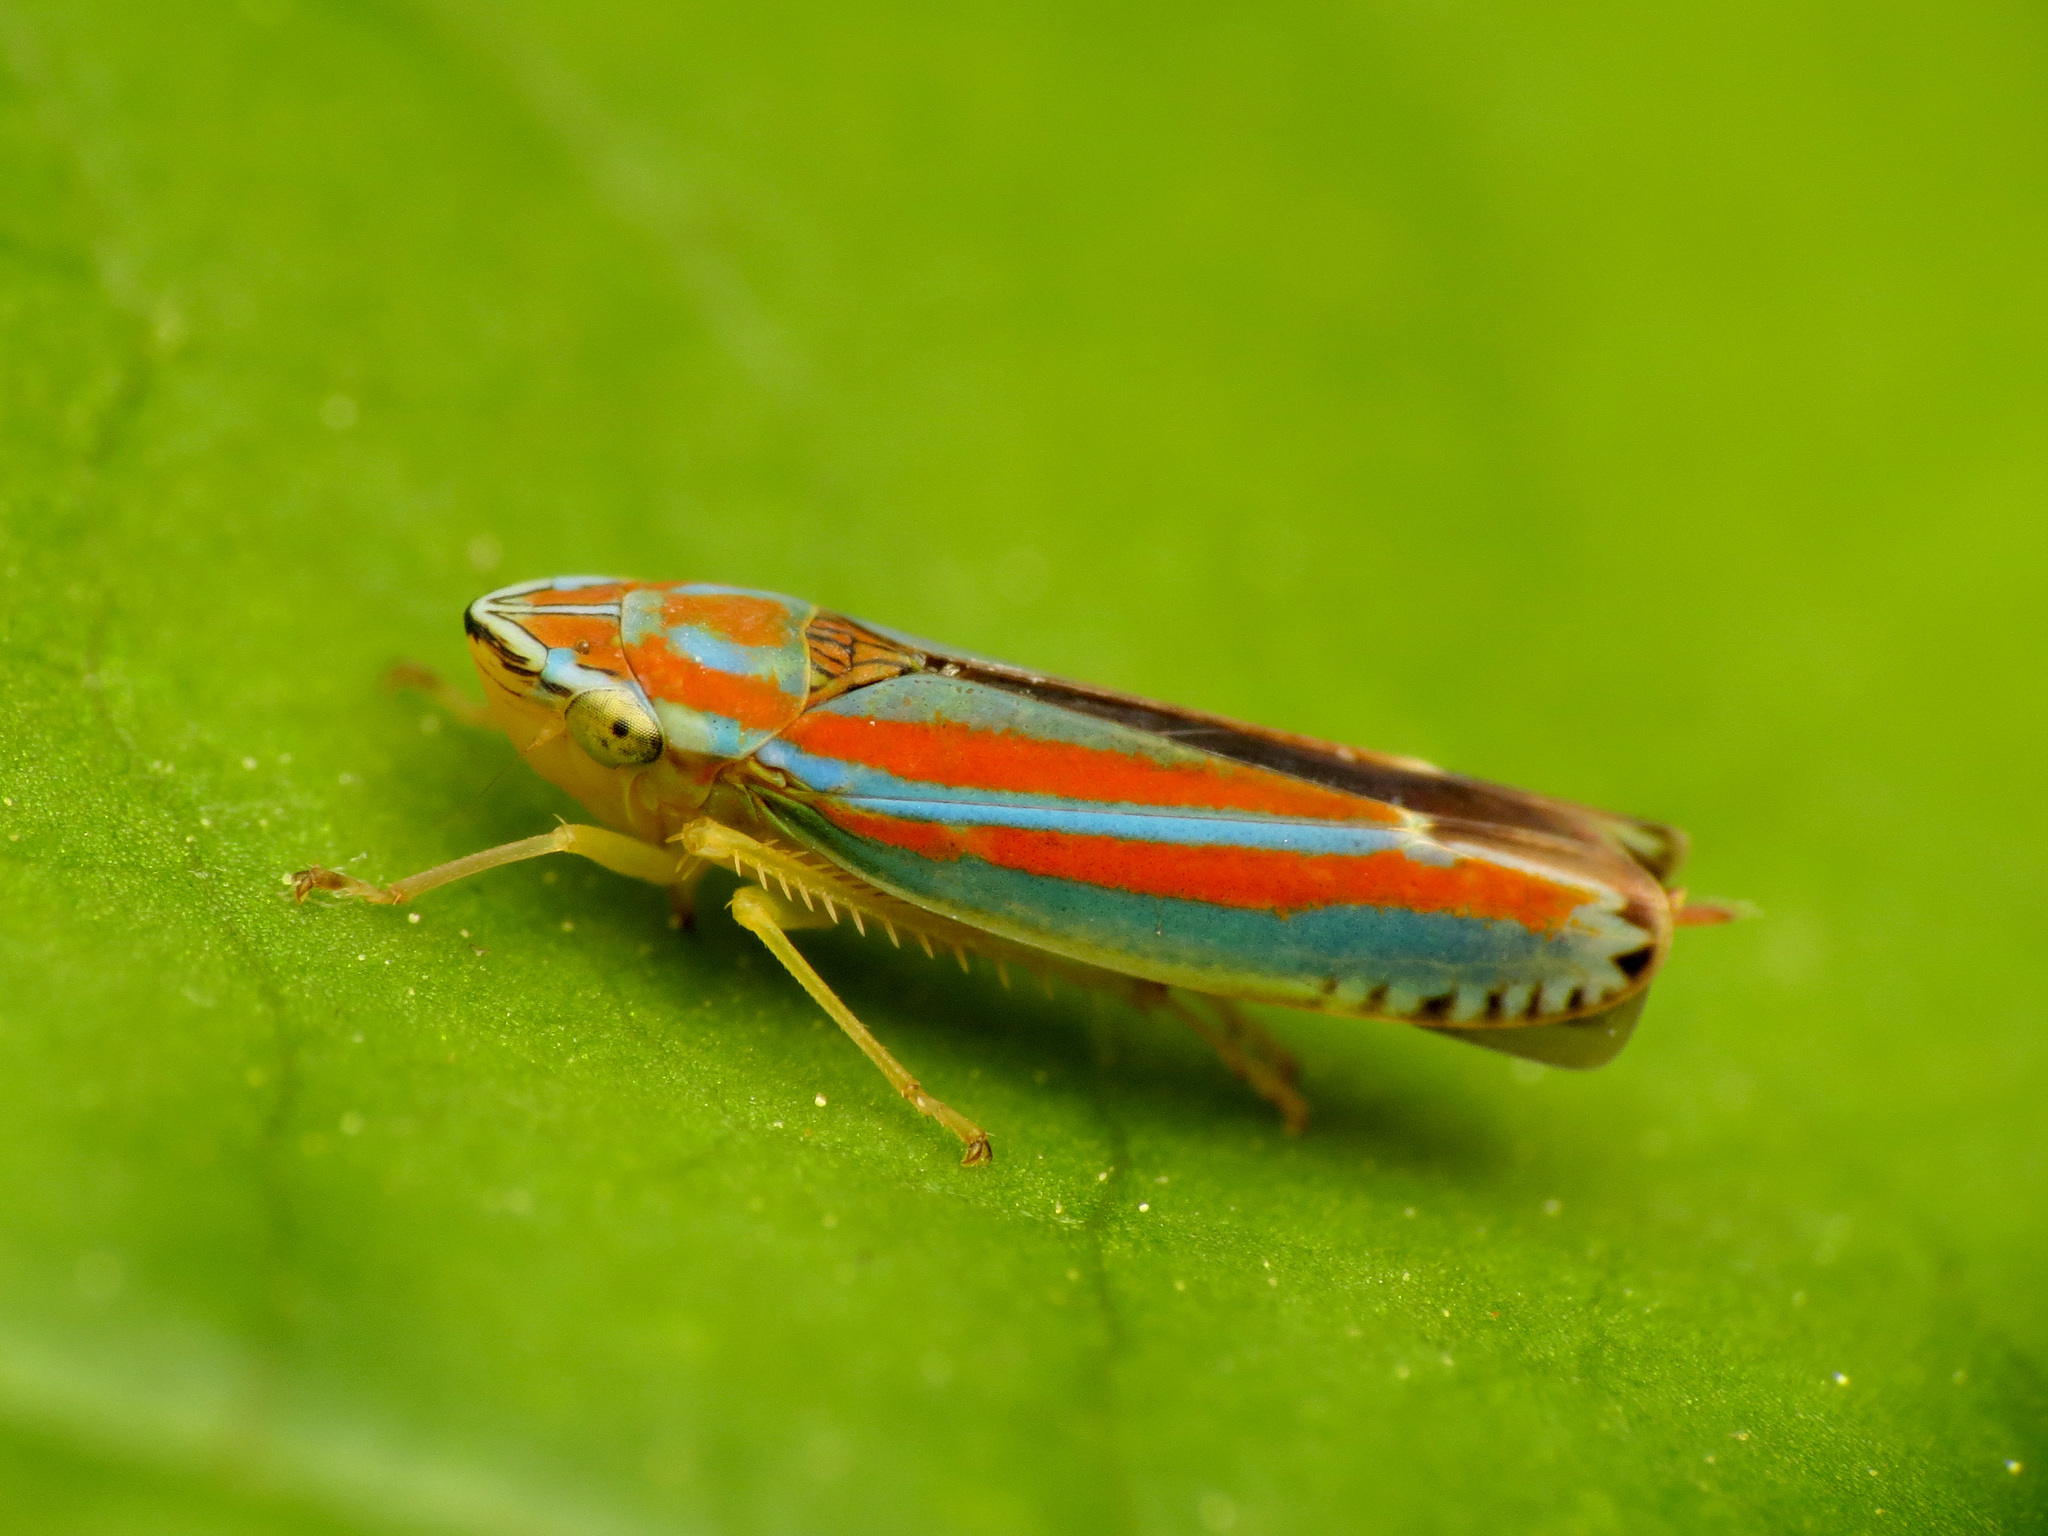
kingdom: Animalia
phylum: Arthropoda
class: Insecta
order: Hemiptera
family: Cicadellidae
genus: Graphocephala
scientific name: Graphocephala versuta
